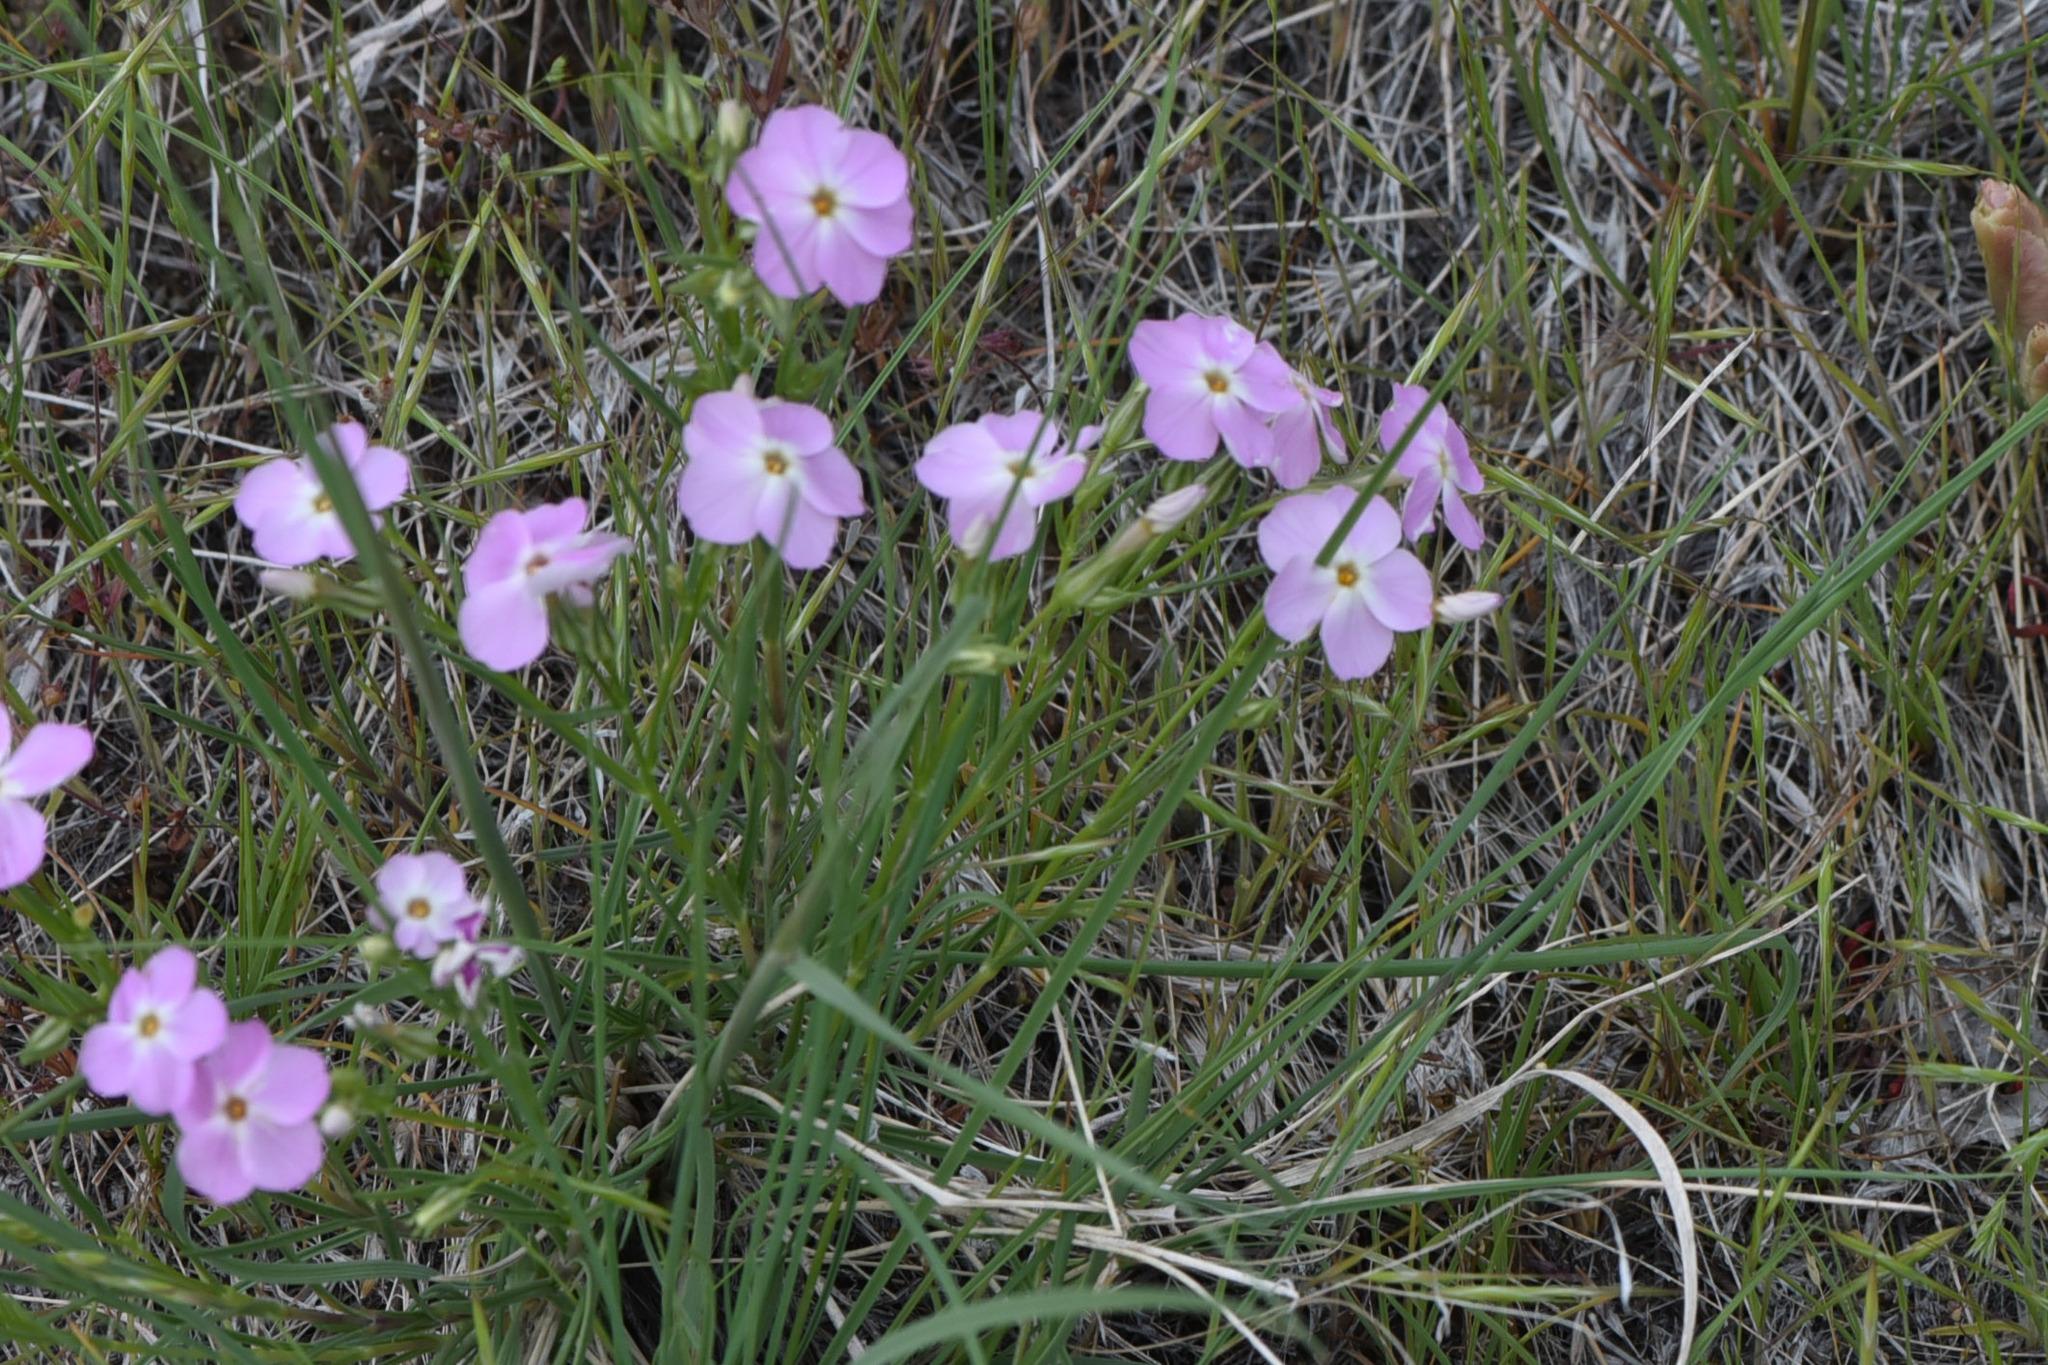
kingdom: Plantae
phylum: Tracheophyta
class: Magnoliopsida
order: Ericales
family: Polemoniaceae
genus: Phlox
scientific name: Phlox longifolia
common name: Longleaf phlox
